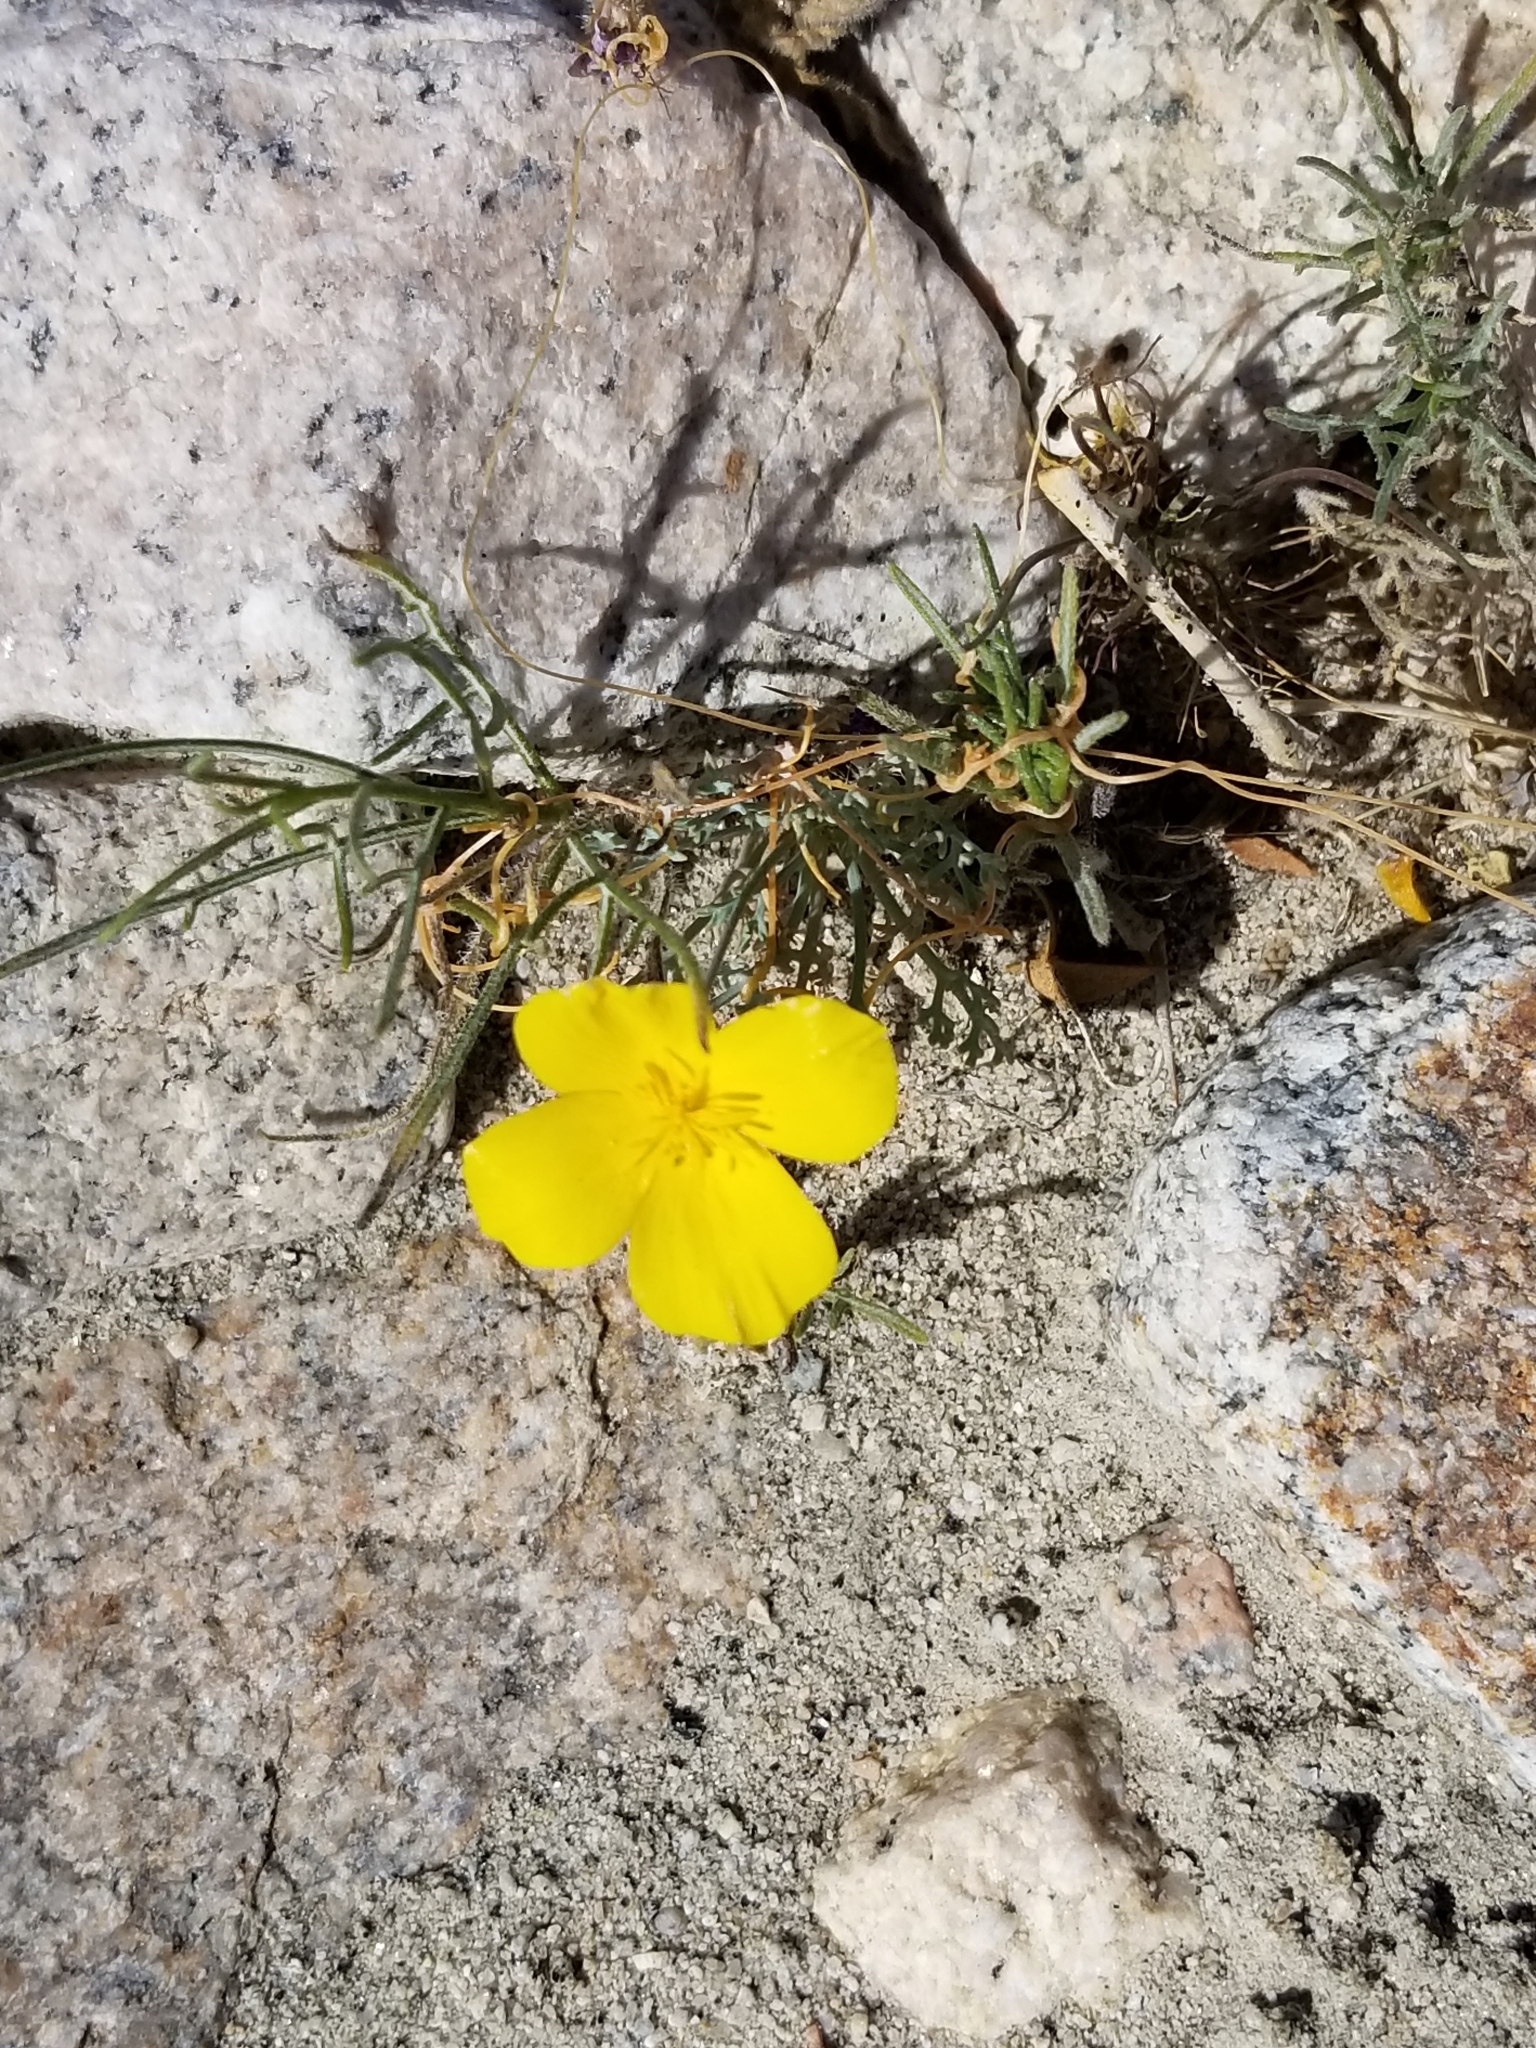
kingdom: Plantae
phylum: Tracheophyta
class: Magnoliopsida
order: Ranunculales
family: Papaveraceae
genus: Eschscholzia
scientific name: Eschscholzia parishii
